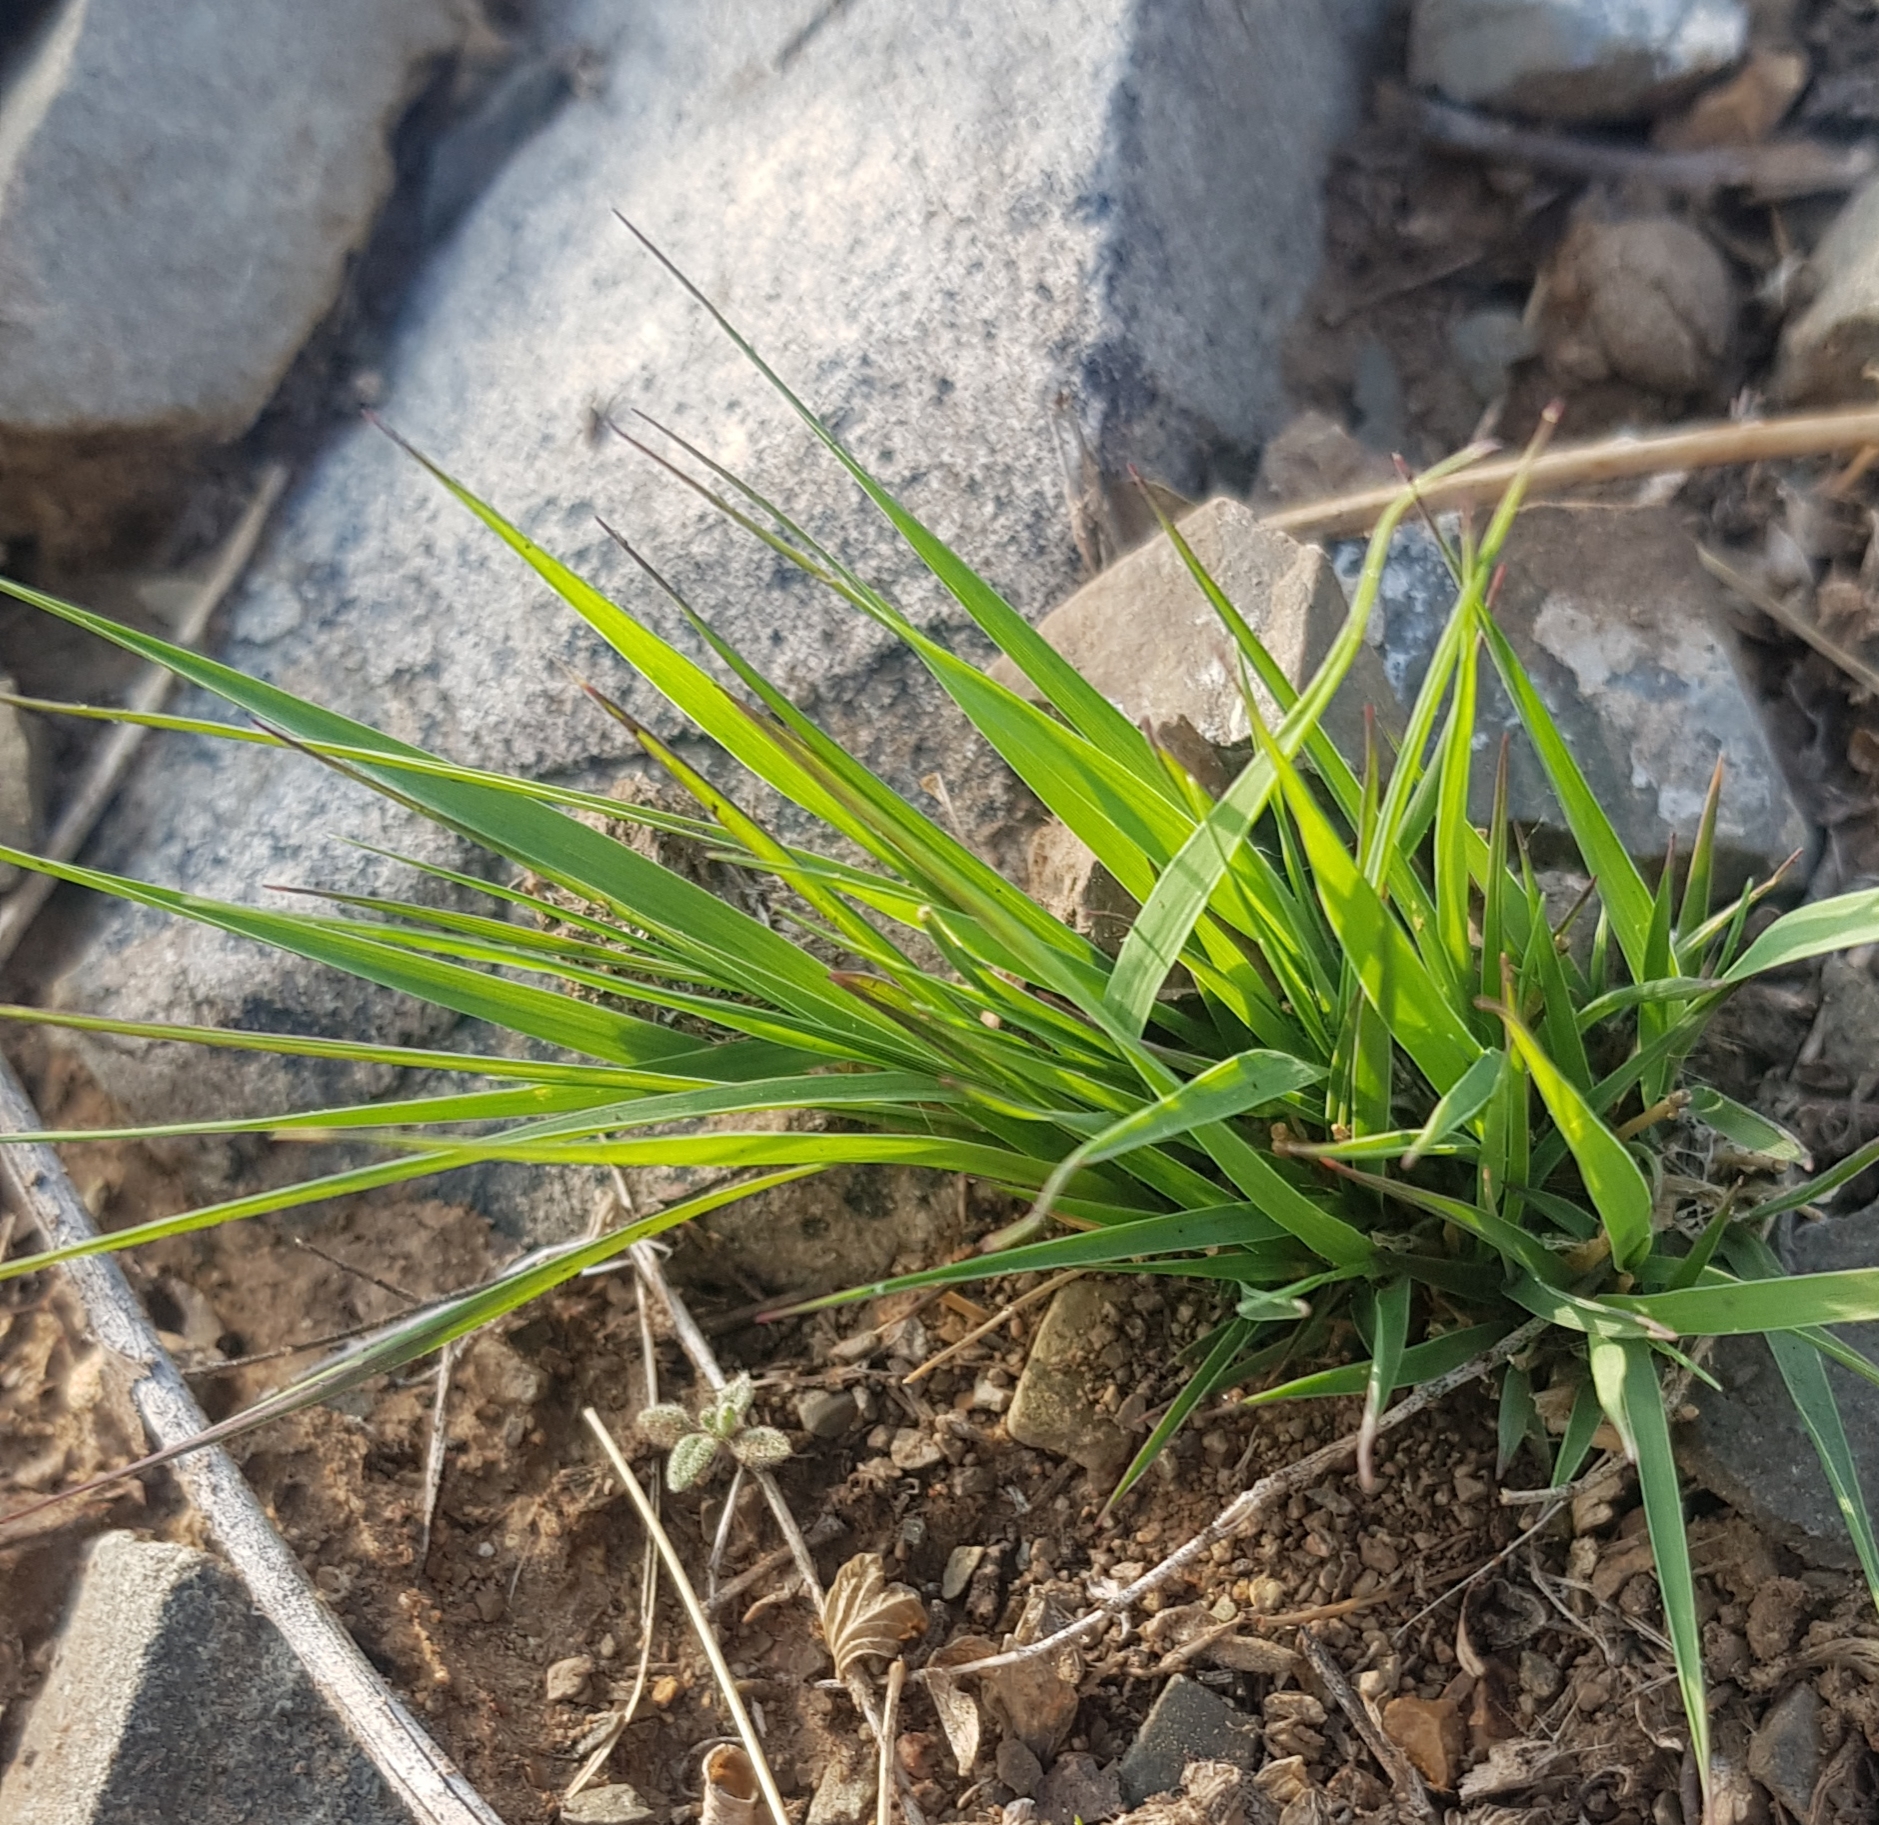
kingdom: Plantae
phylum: Tracheophyta
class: Liliopsida
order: Poales
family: Poaceae
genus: Cleistogenes
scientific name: Cleistogenes squarrosa
